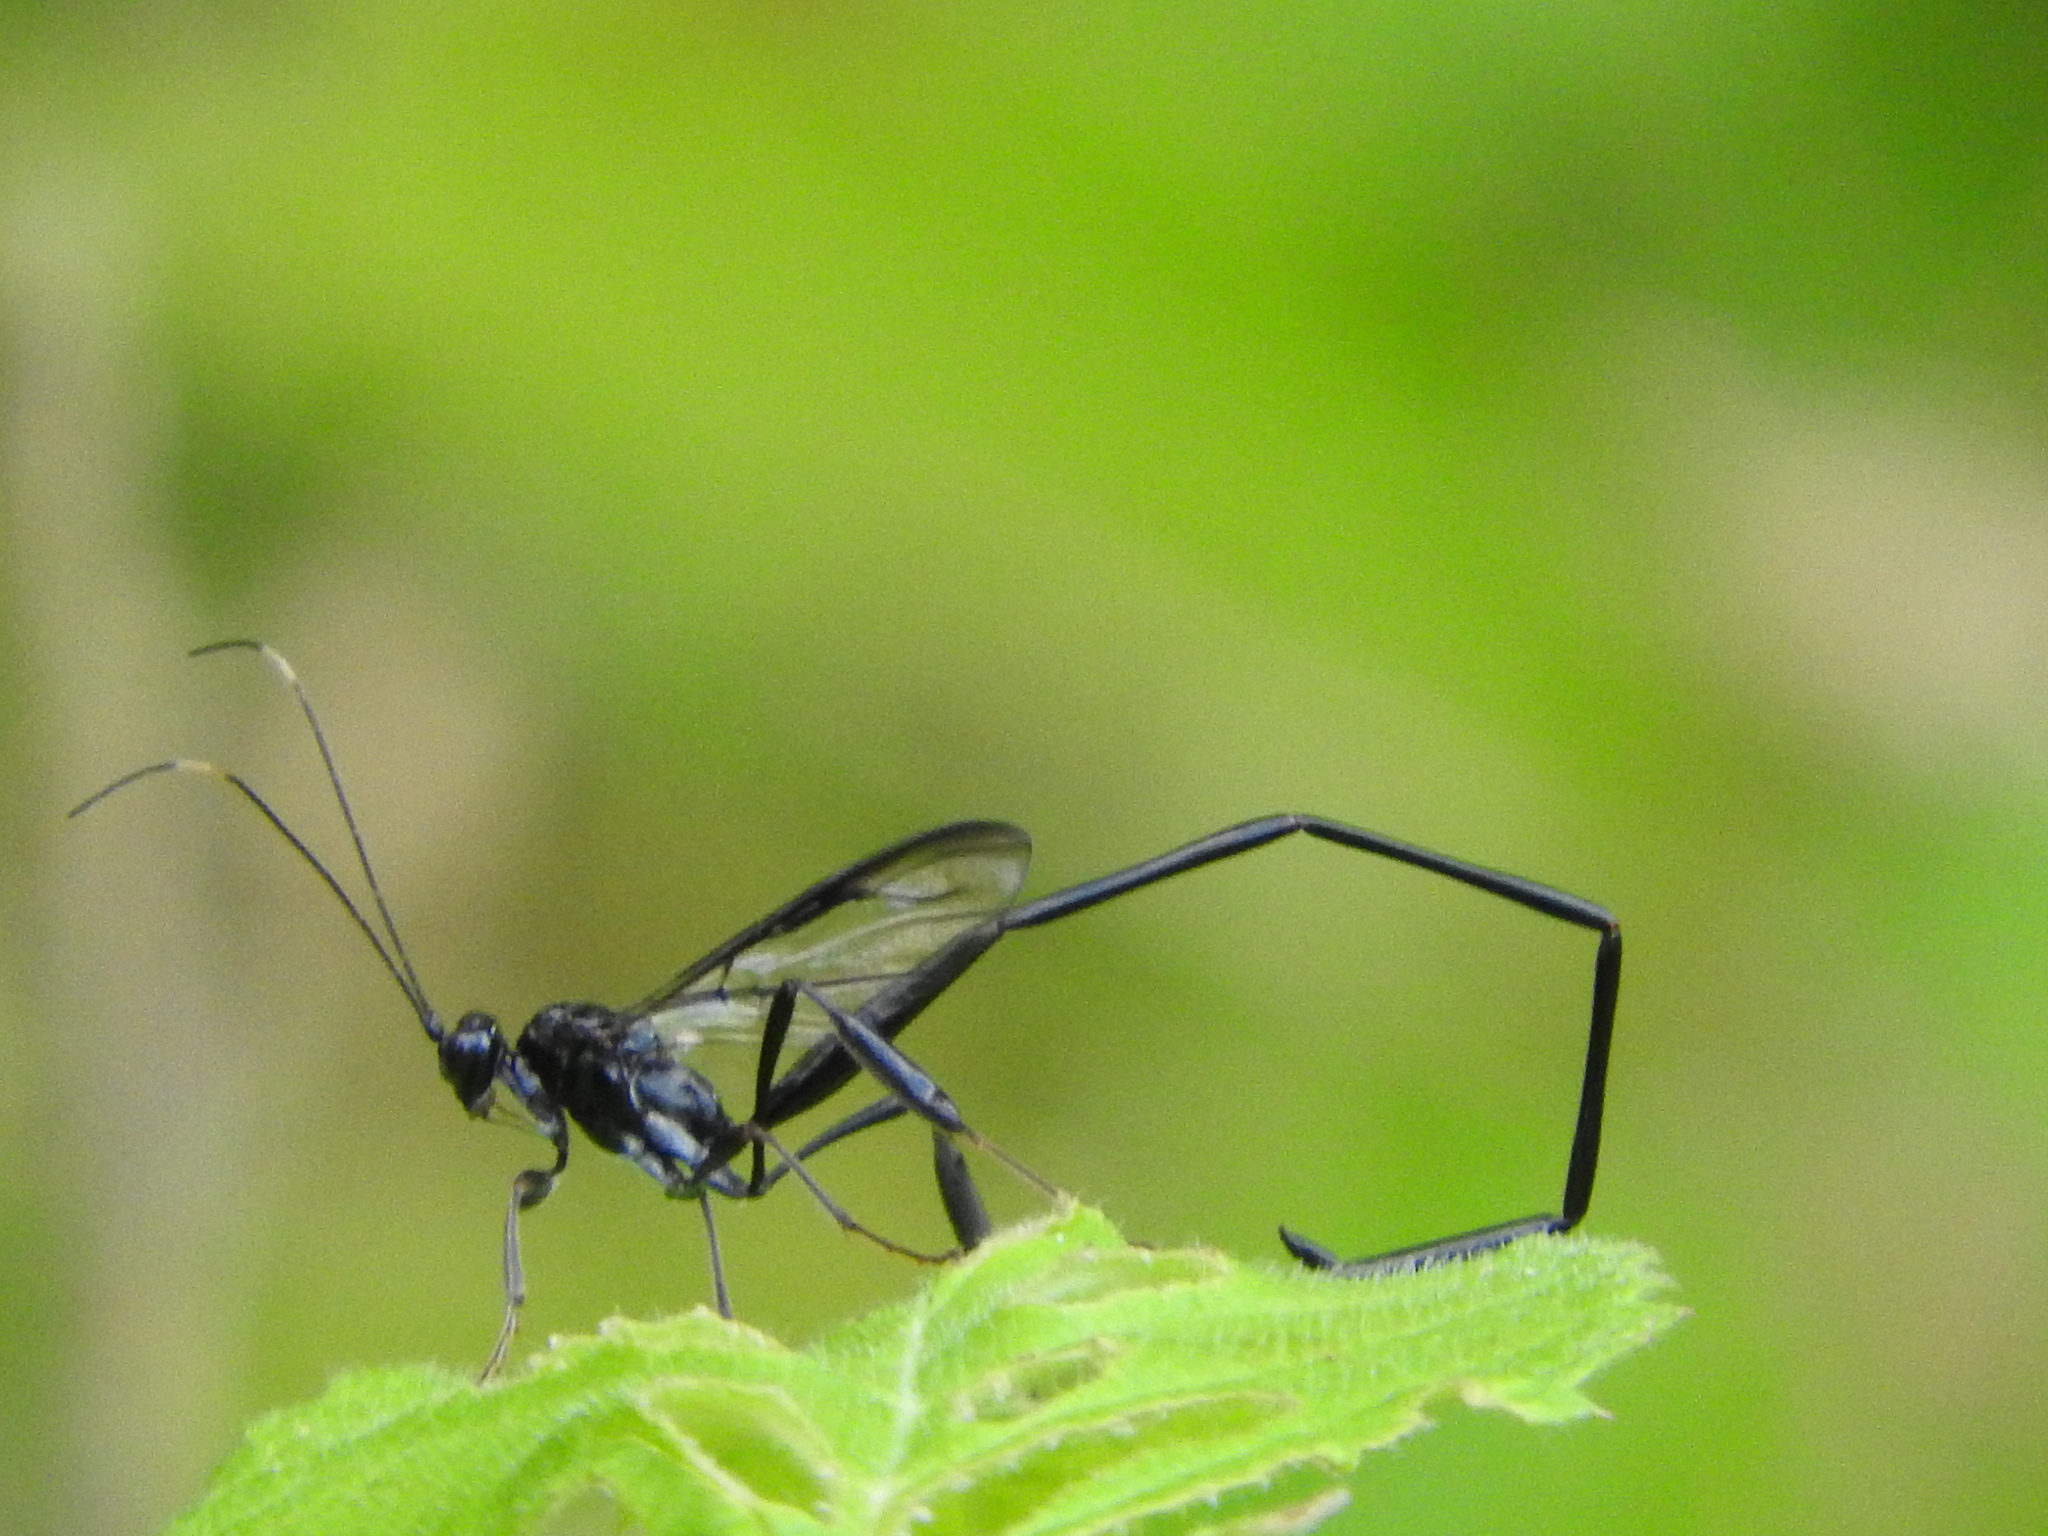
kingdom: Animalia
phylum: Arthropoda
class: Insecta
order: Hymenoptera
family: Pelecinidae
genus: Pelecinus
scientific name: Pelecinus polyturator
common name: American pelecinid wasp
